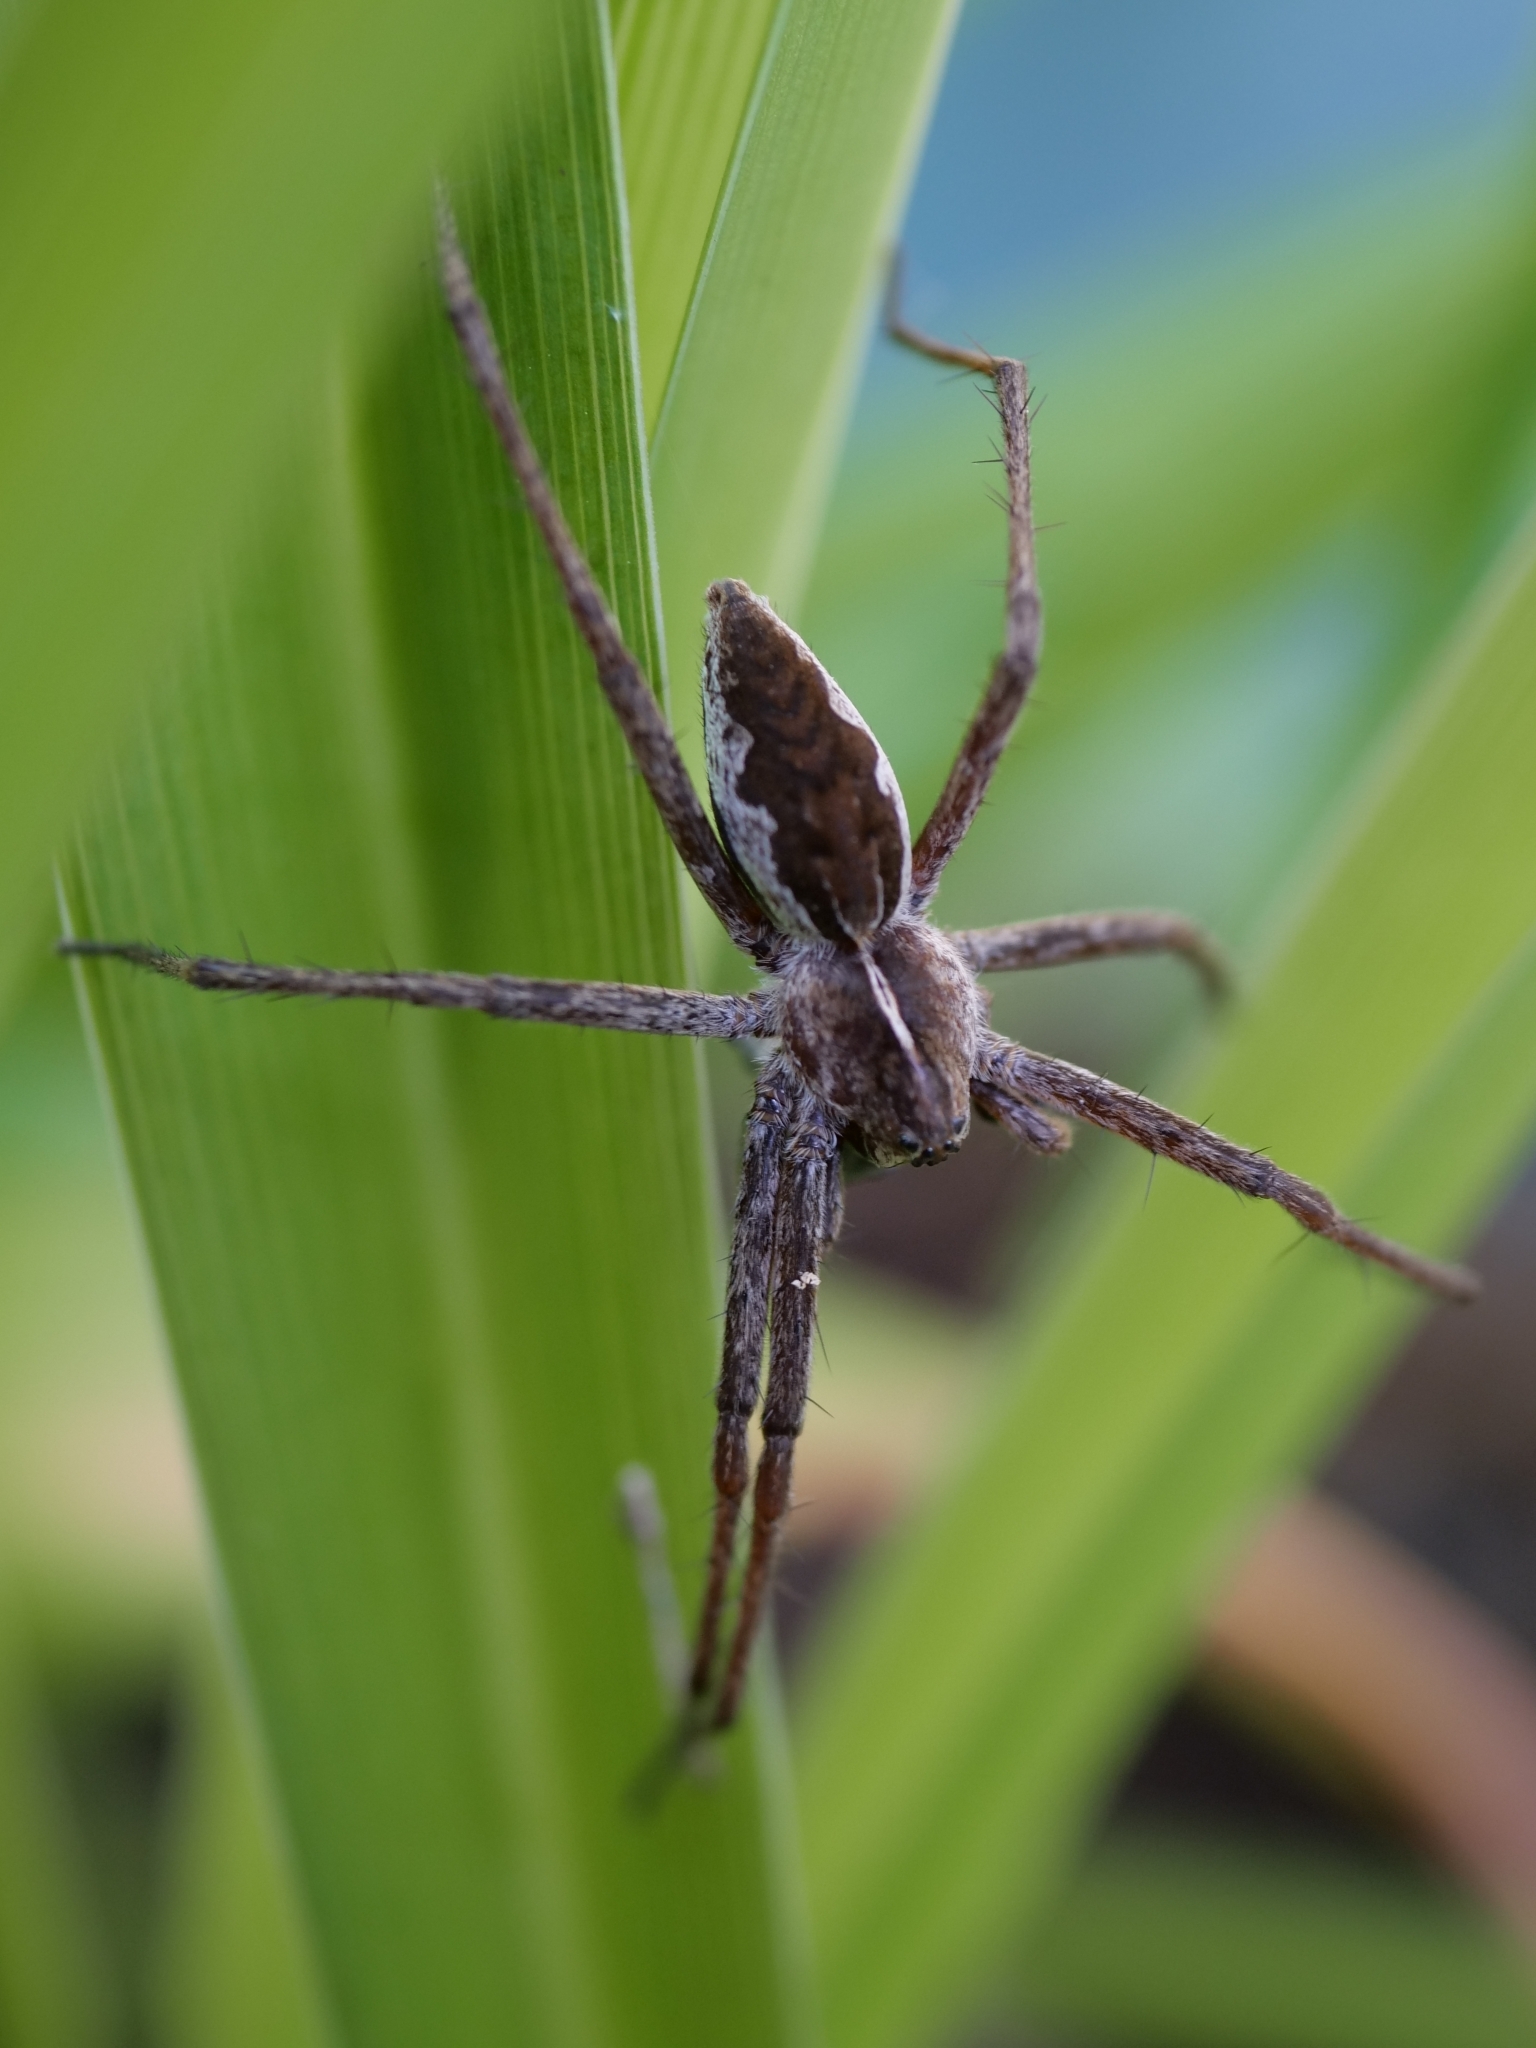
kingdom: Animalia
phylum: Arthropoda
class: Arachnida
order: Araneae
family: Pisauridae
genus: Pisaura
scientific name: Pisaura mirabilis
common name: Tent spider
